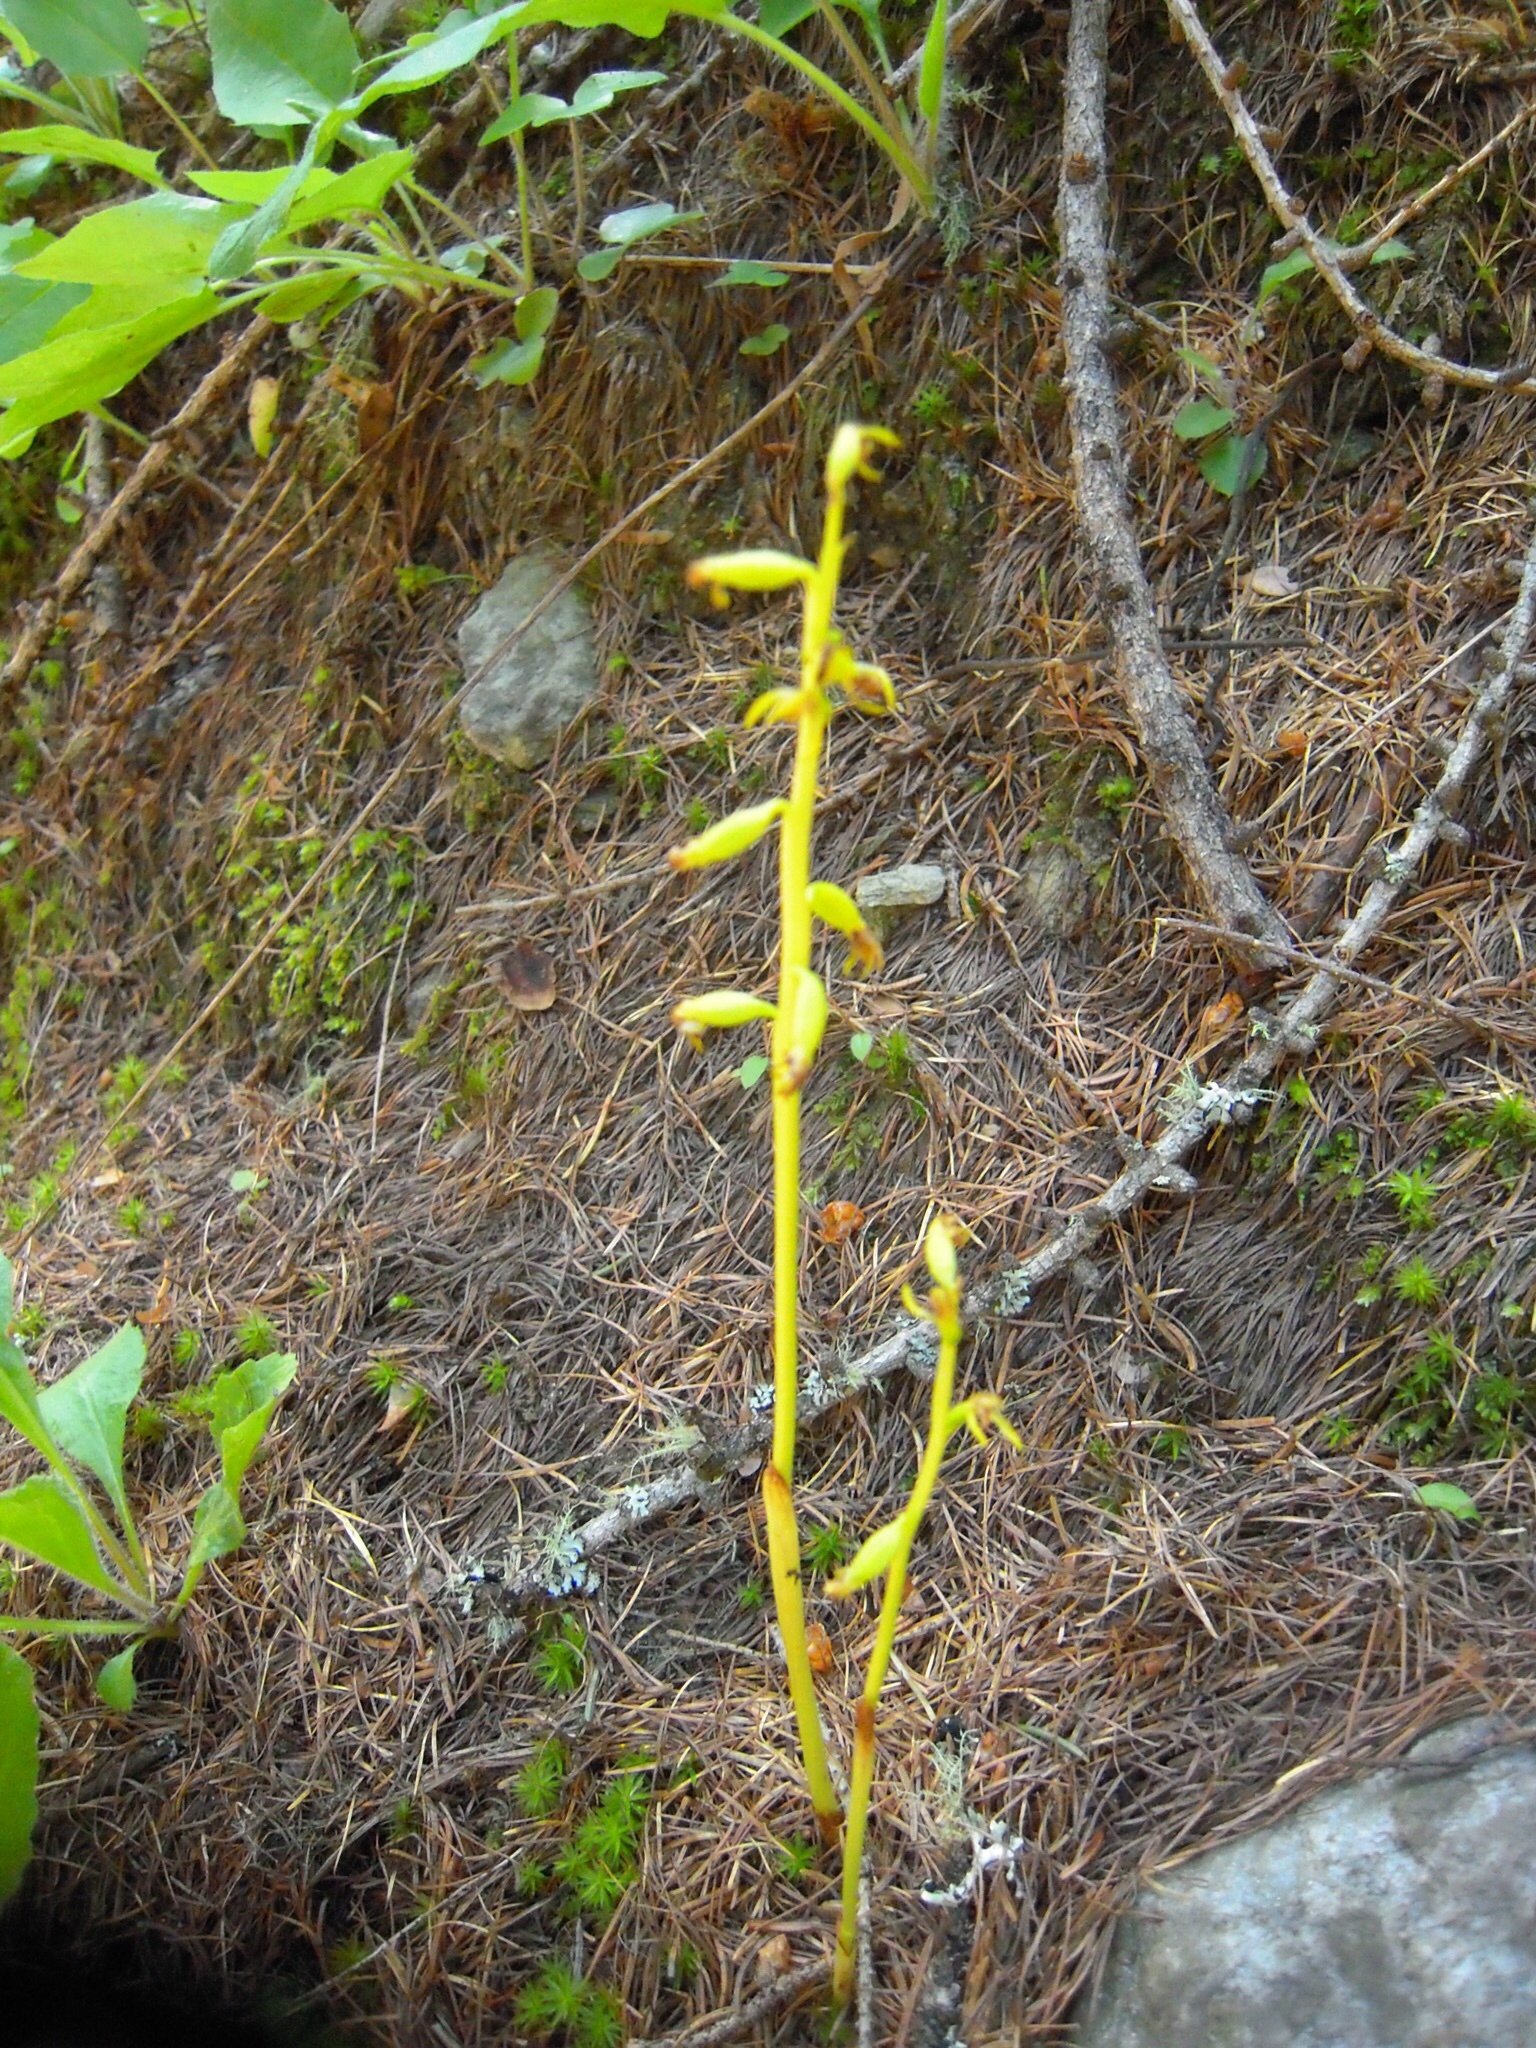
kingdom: Plantae
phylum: Tracheophyta
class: Liliopsida
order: Asparagales
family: Orchidaceae
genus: Corallorhiza
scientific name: Corallorhiza trifida
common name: Yellow coralroot
